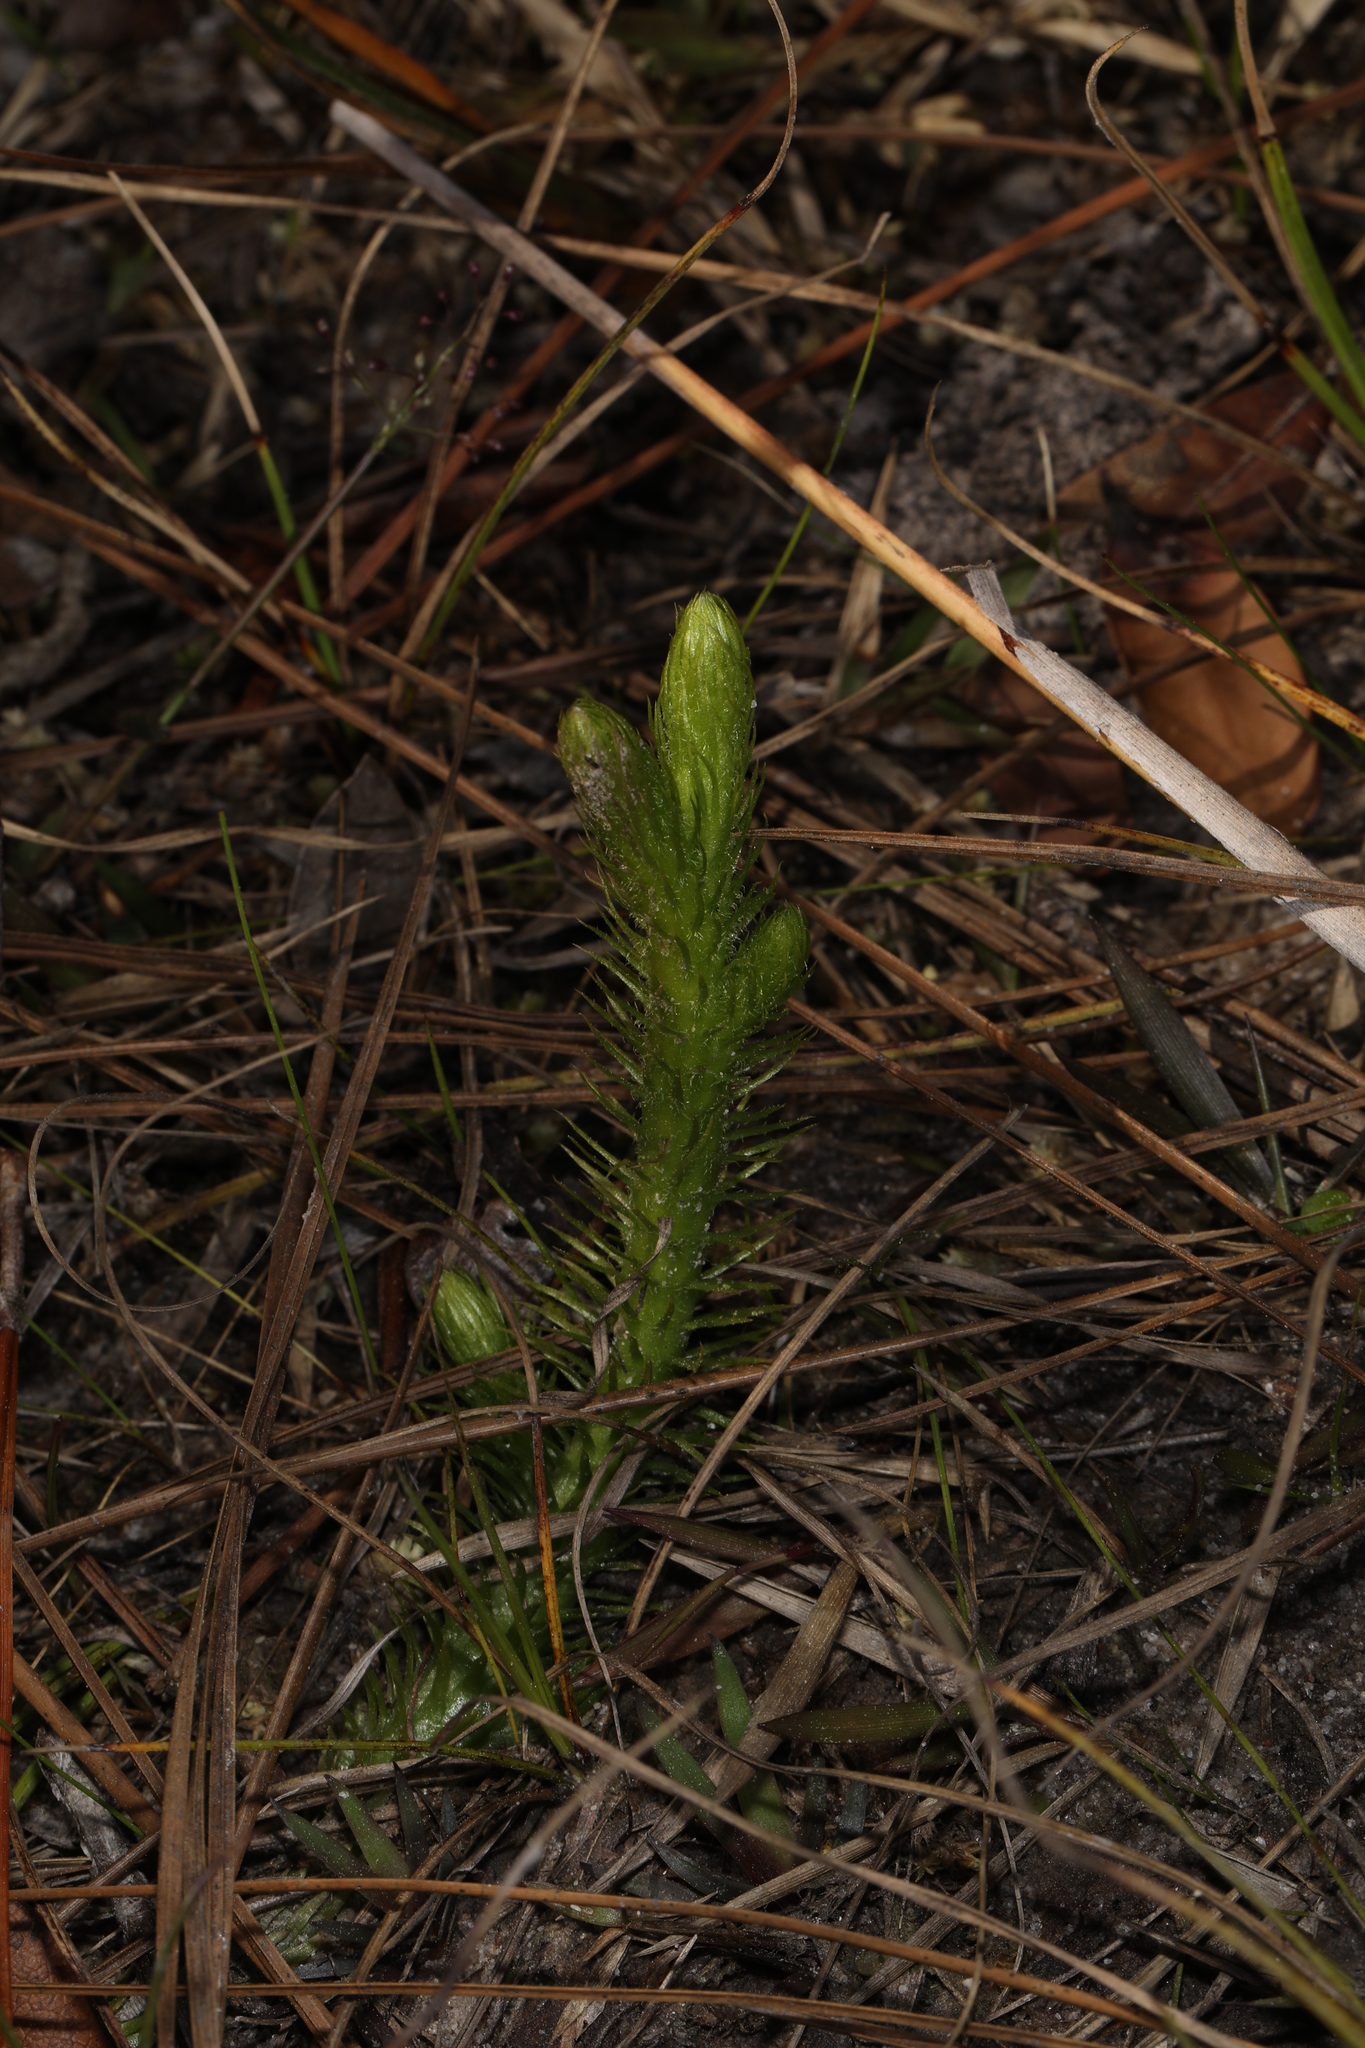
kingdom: Plantae
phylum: Tracheophyta
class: Lycopodiopsida
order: Lycopodiales
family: Lycopodiaceae
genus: Lycopodiella
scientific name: Lycopodiella alopecuroides
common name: Foxtail clubmoss
